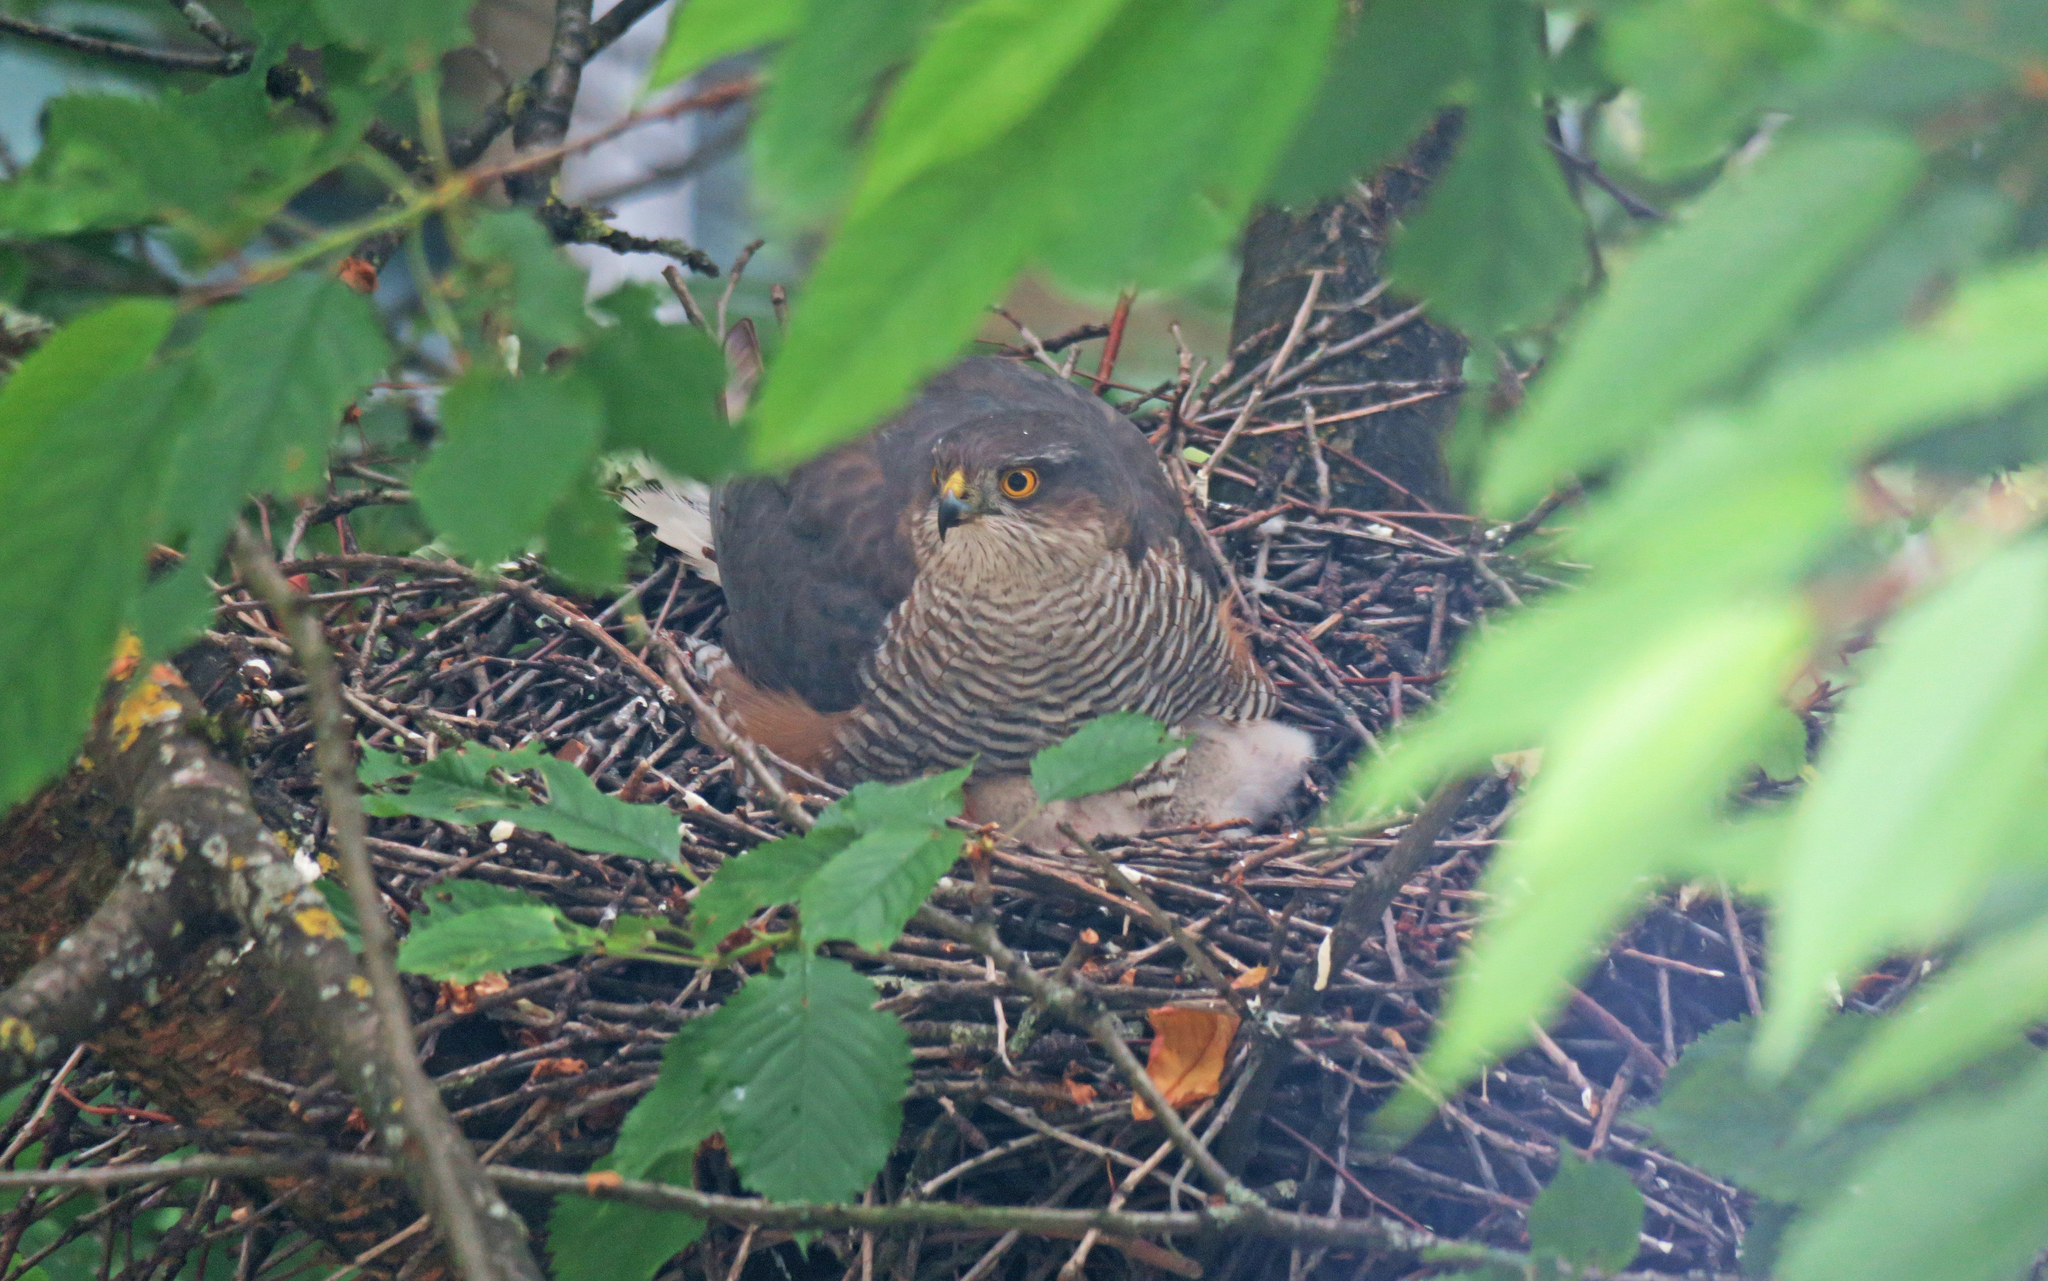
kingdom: Animalia
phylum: Chordata
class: Aves
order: Accipitriformes
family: Accipitridae
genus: Accipiter
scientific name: Accipiter nisus
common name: Eurasian sparrowhawk
